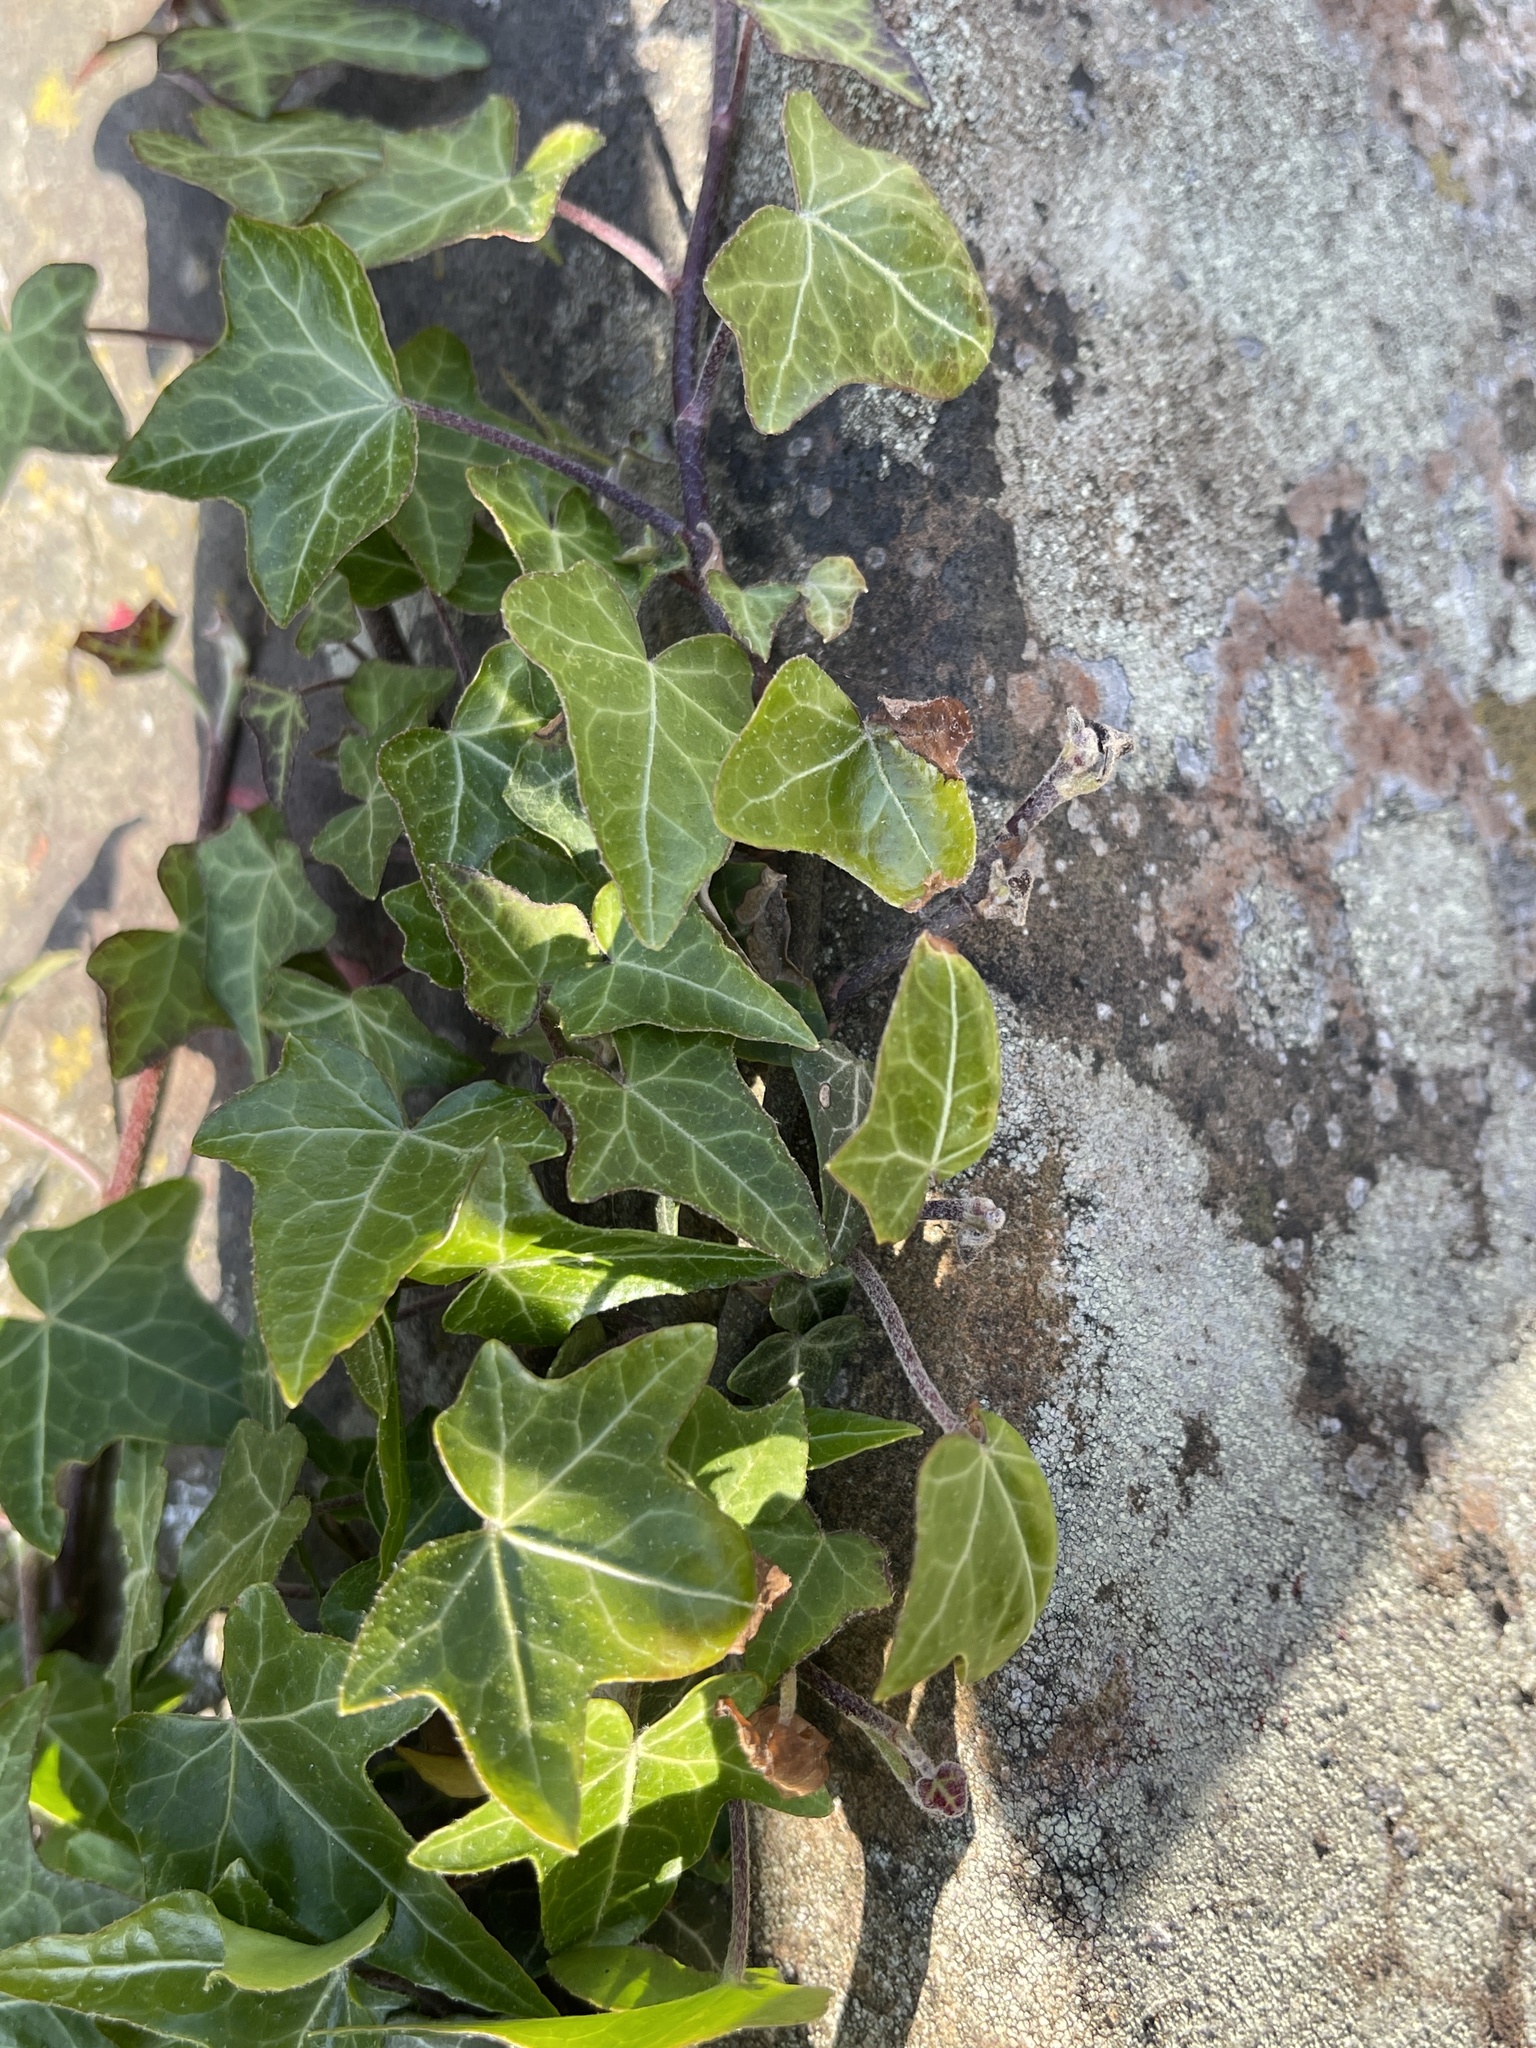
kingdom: Plantae
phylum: Tracheophyta
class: Magnoliopsida
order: Apiales
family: Araliaceae
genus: Hedera
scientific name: Hedera helix
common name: Ivy
